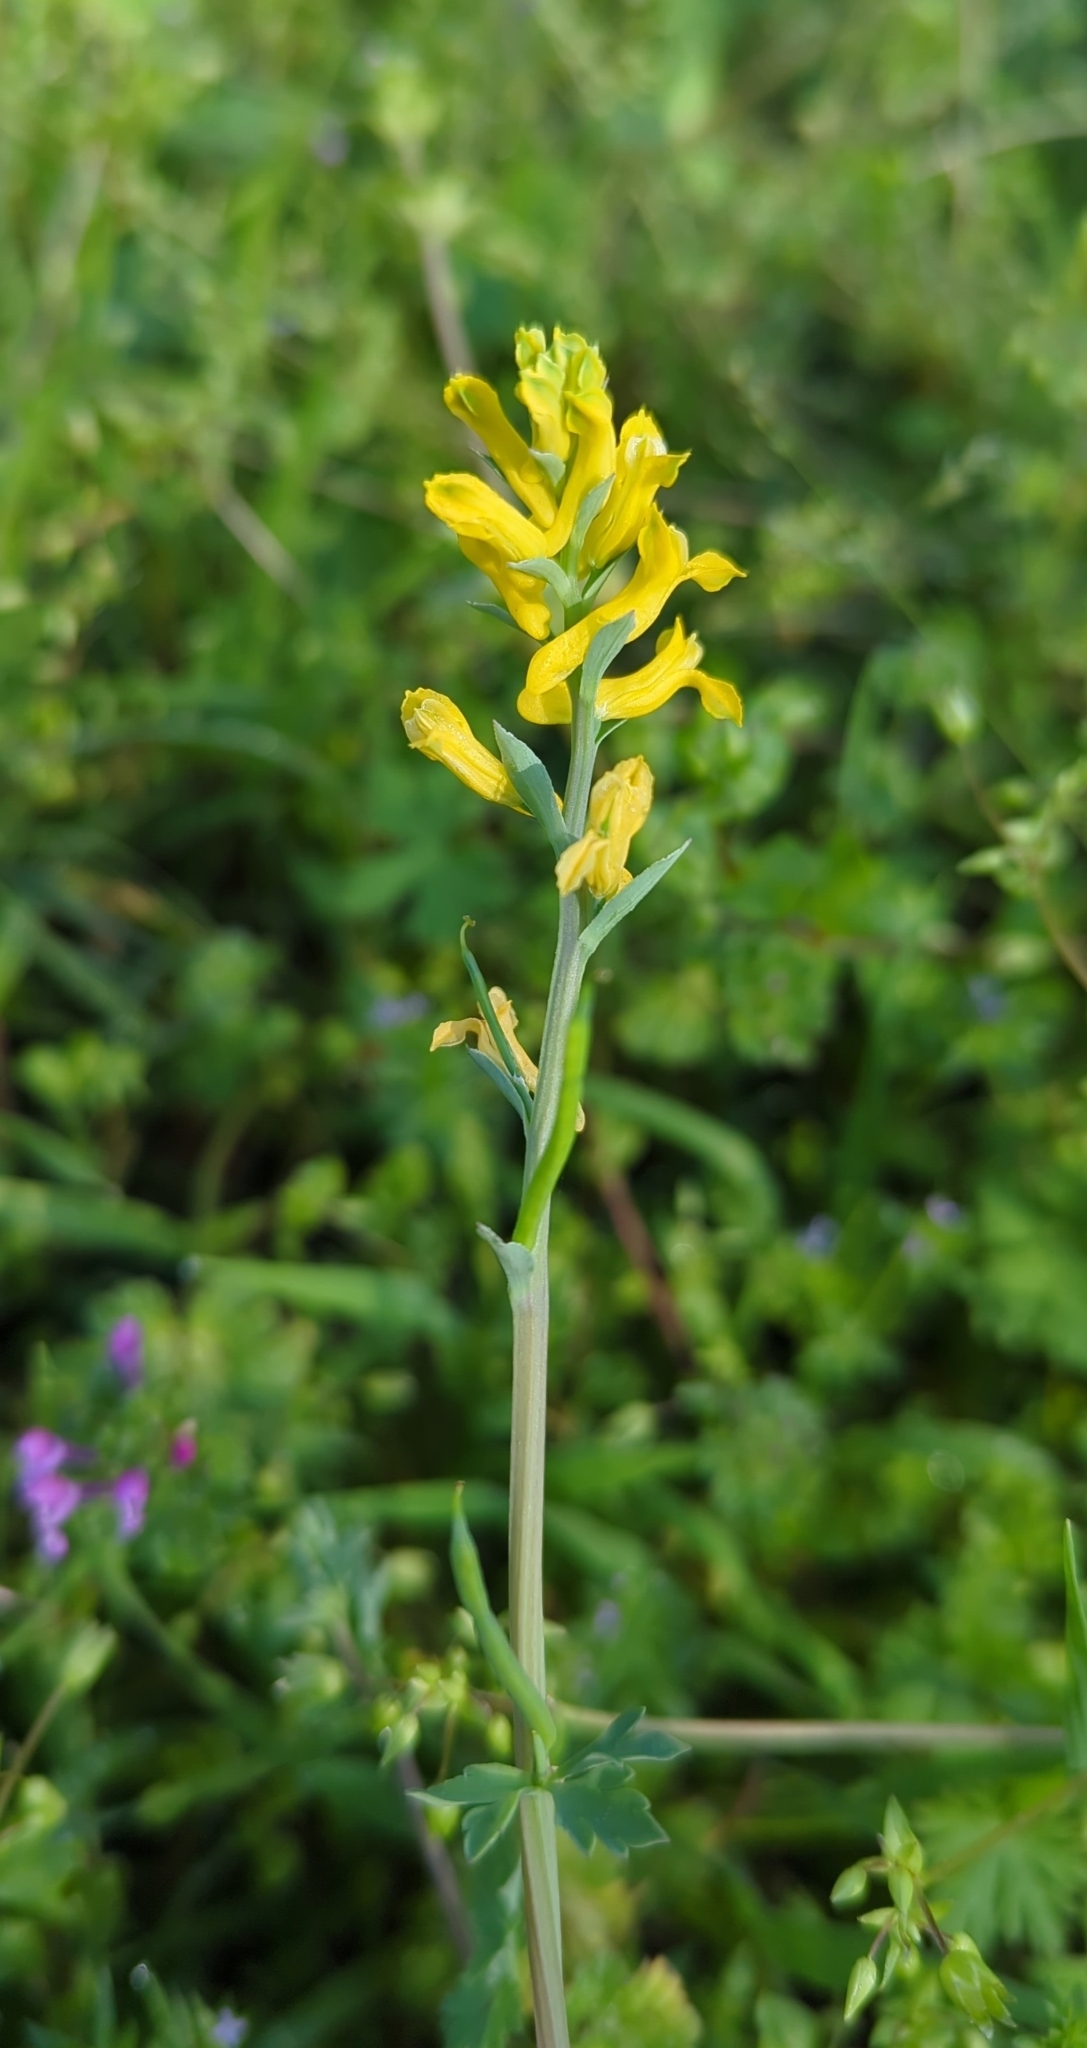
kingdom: Plantae
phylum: Tracheophyta
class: Magnoliopsida
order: Ranunculales
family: Papaveraceae
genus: Corydalis
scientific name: Corydalis aurea
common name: Golden corydalis
